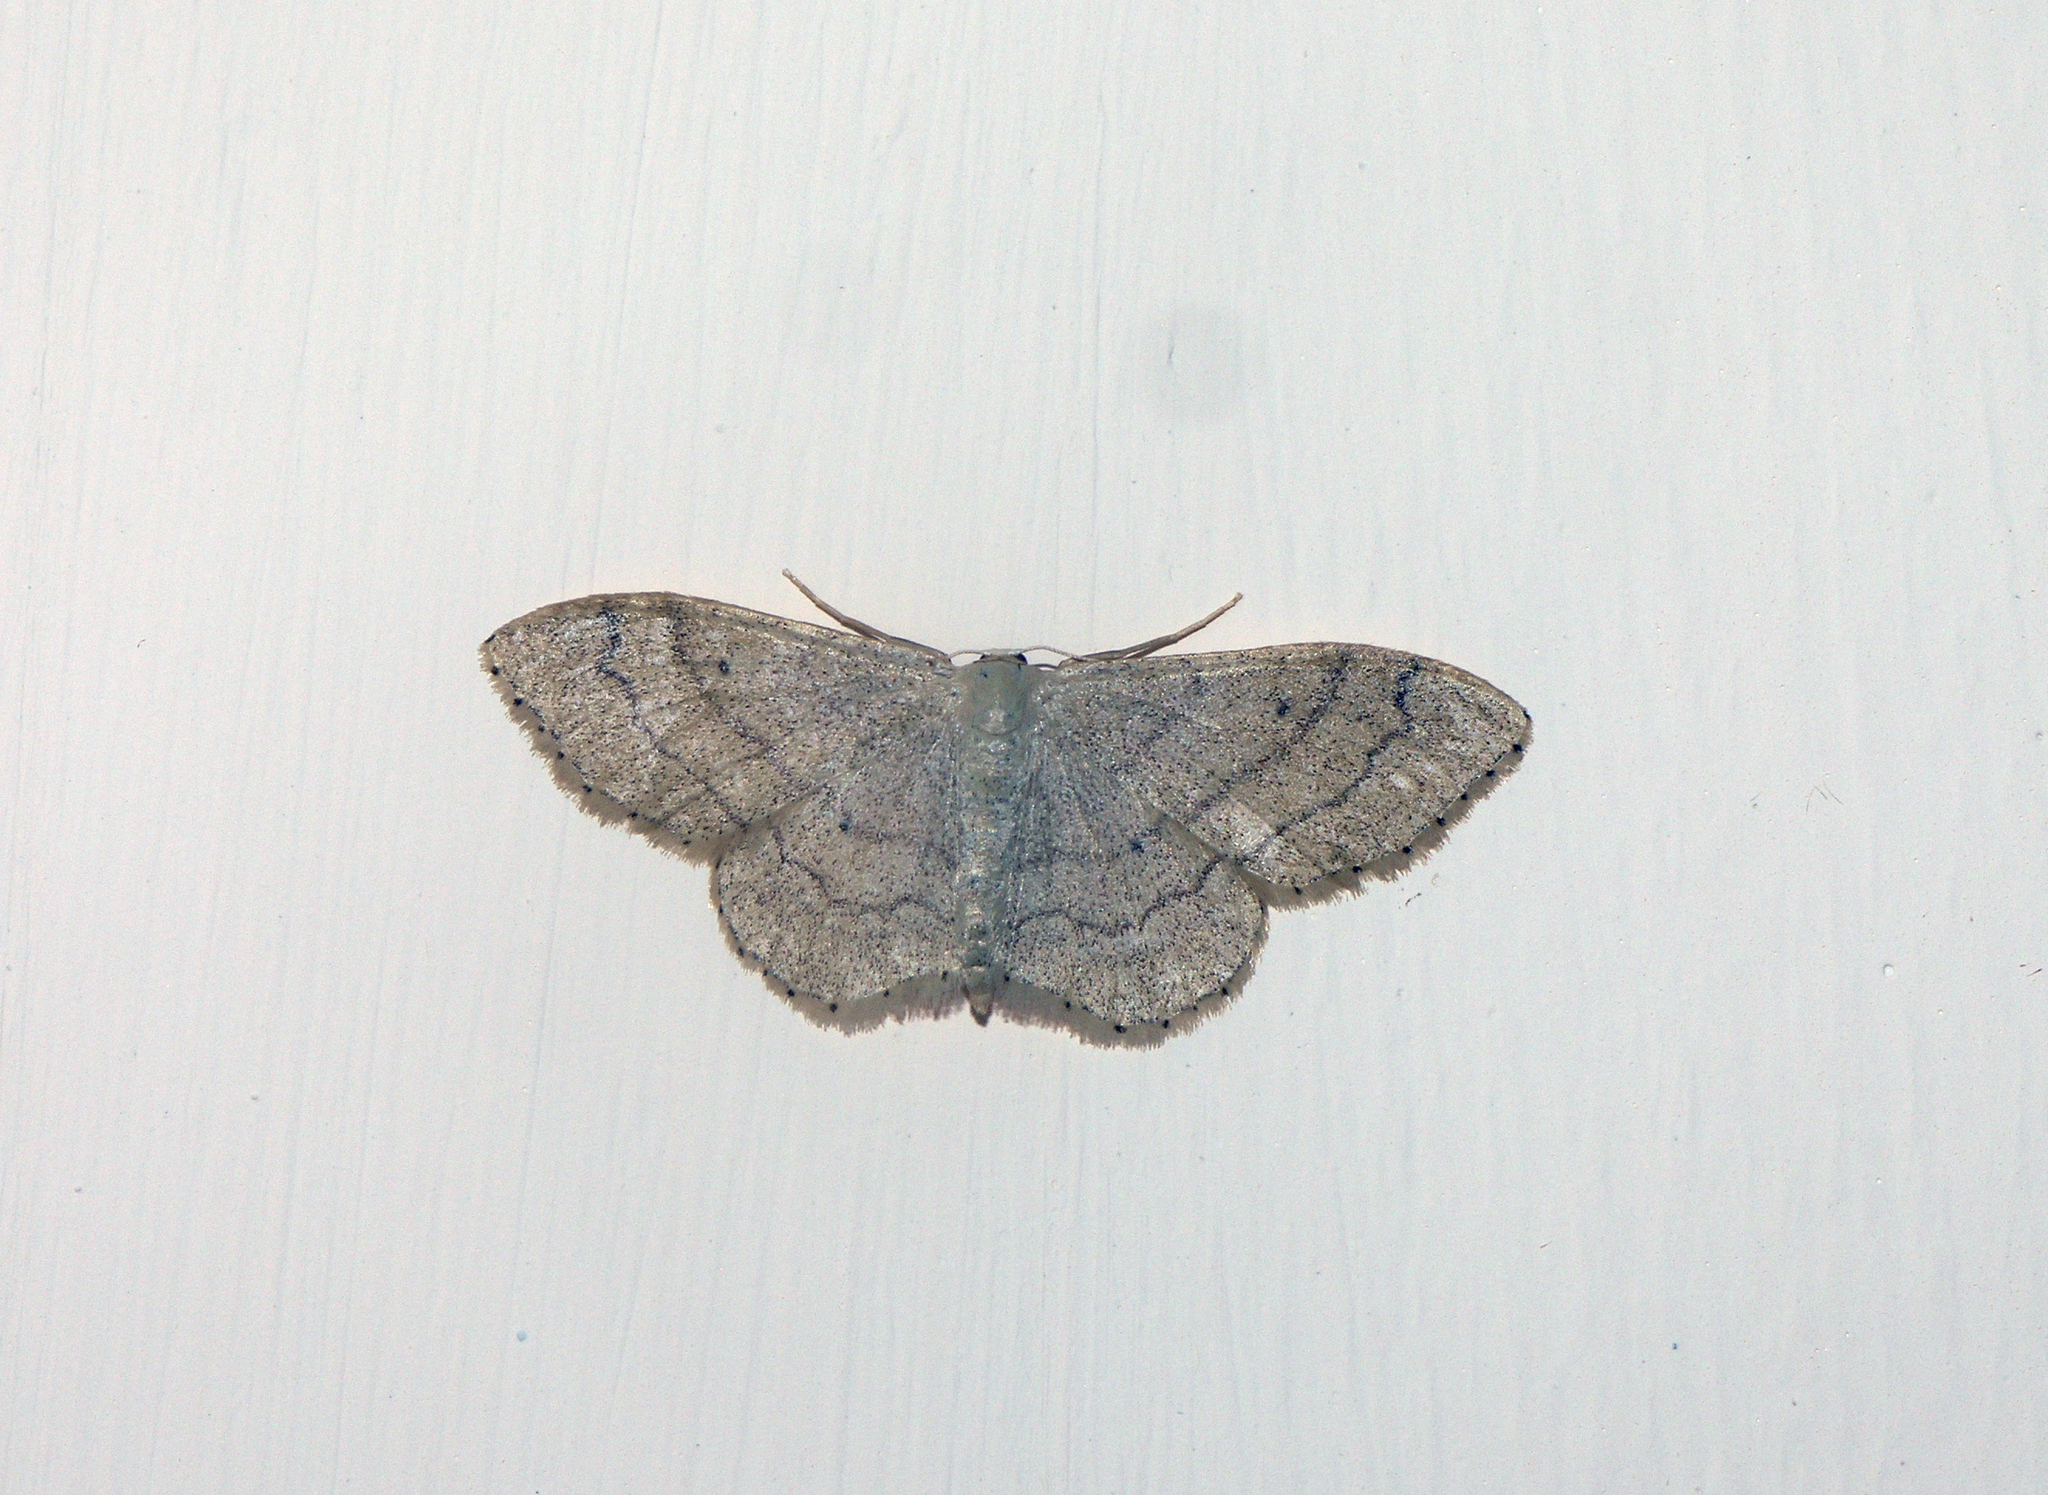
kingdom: Animalia
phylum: Arthropoda
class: Insecta
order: Lepidoptera
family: Geometridae
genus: Idaea
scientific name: Idaea aversata
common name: Riband wave
